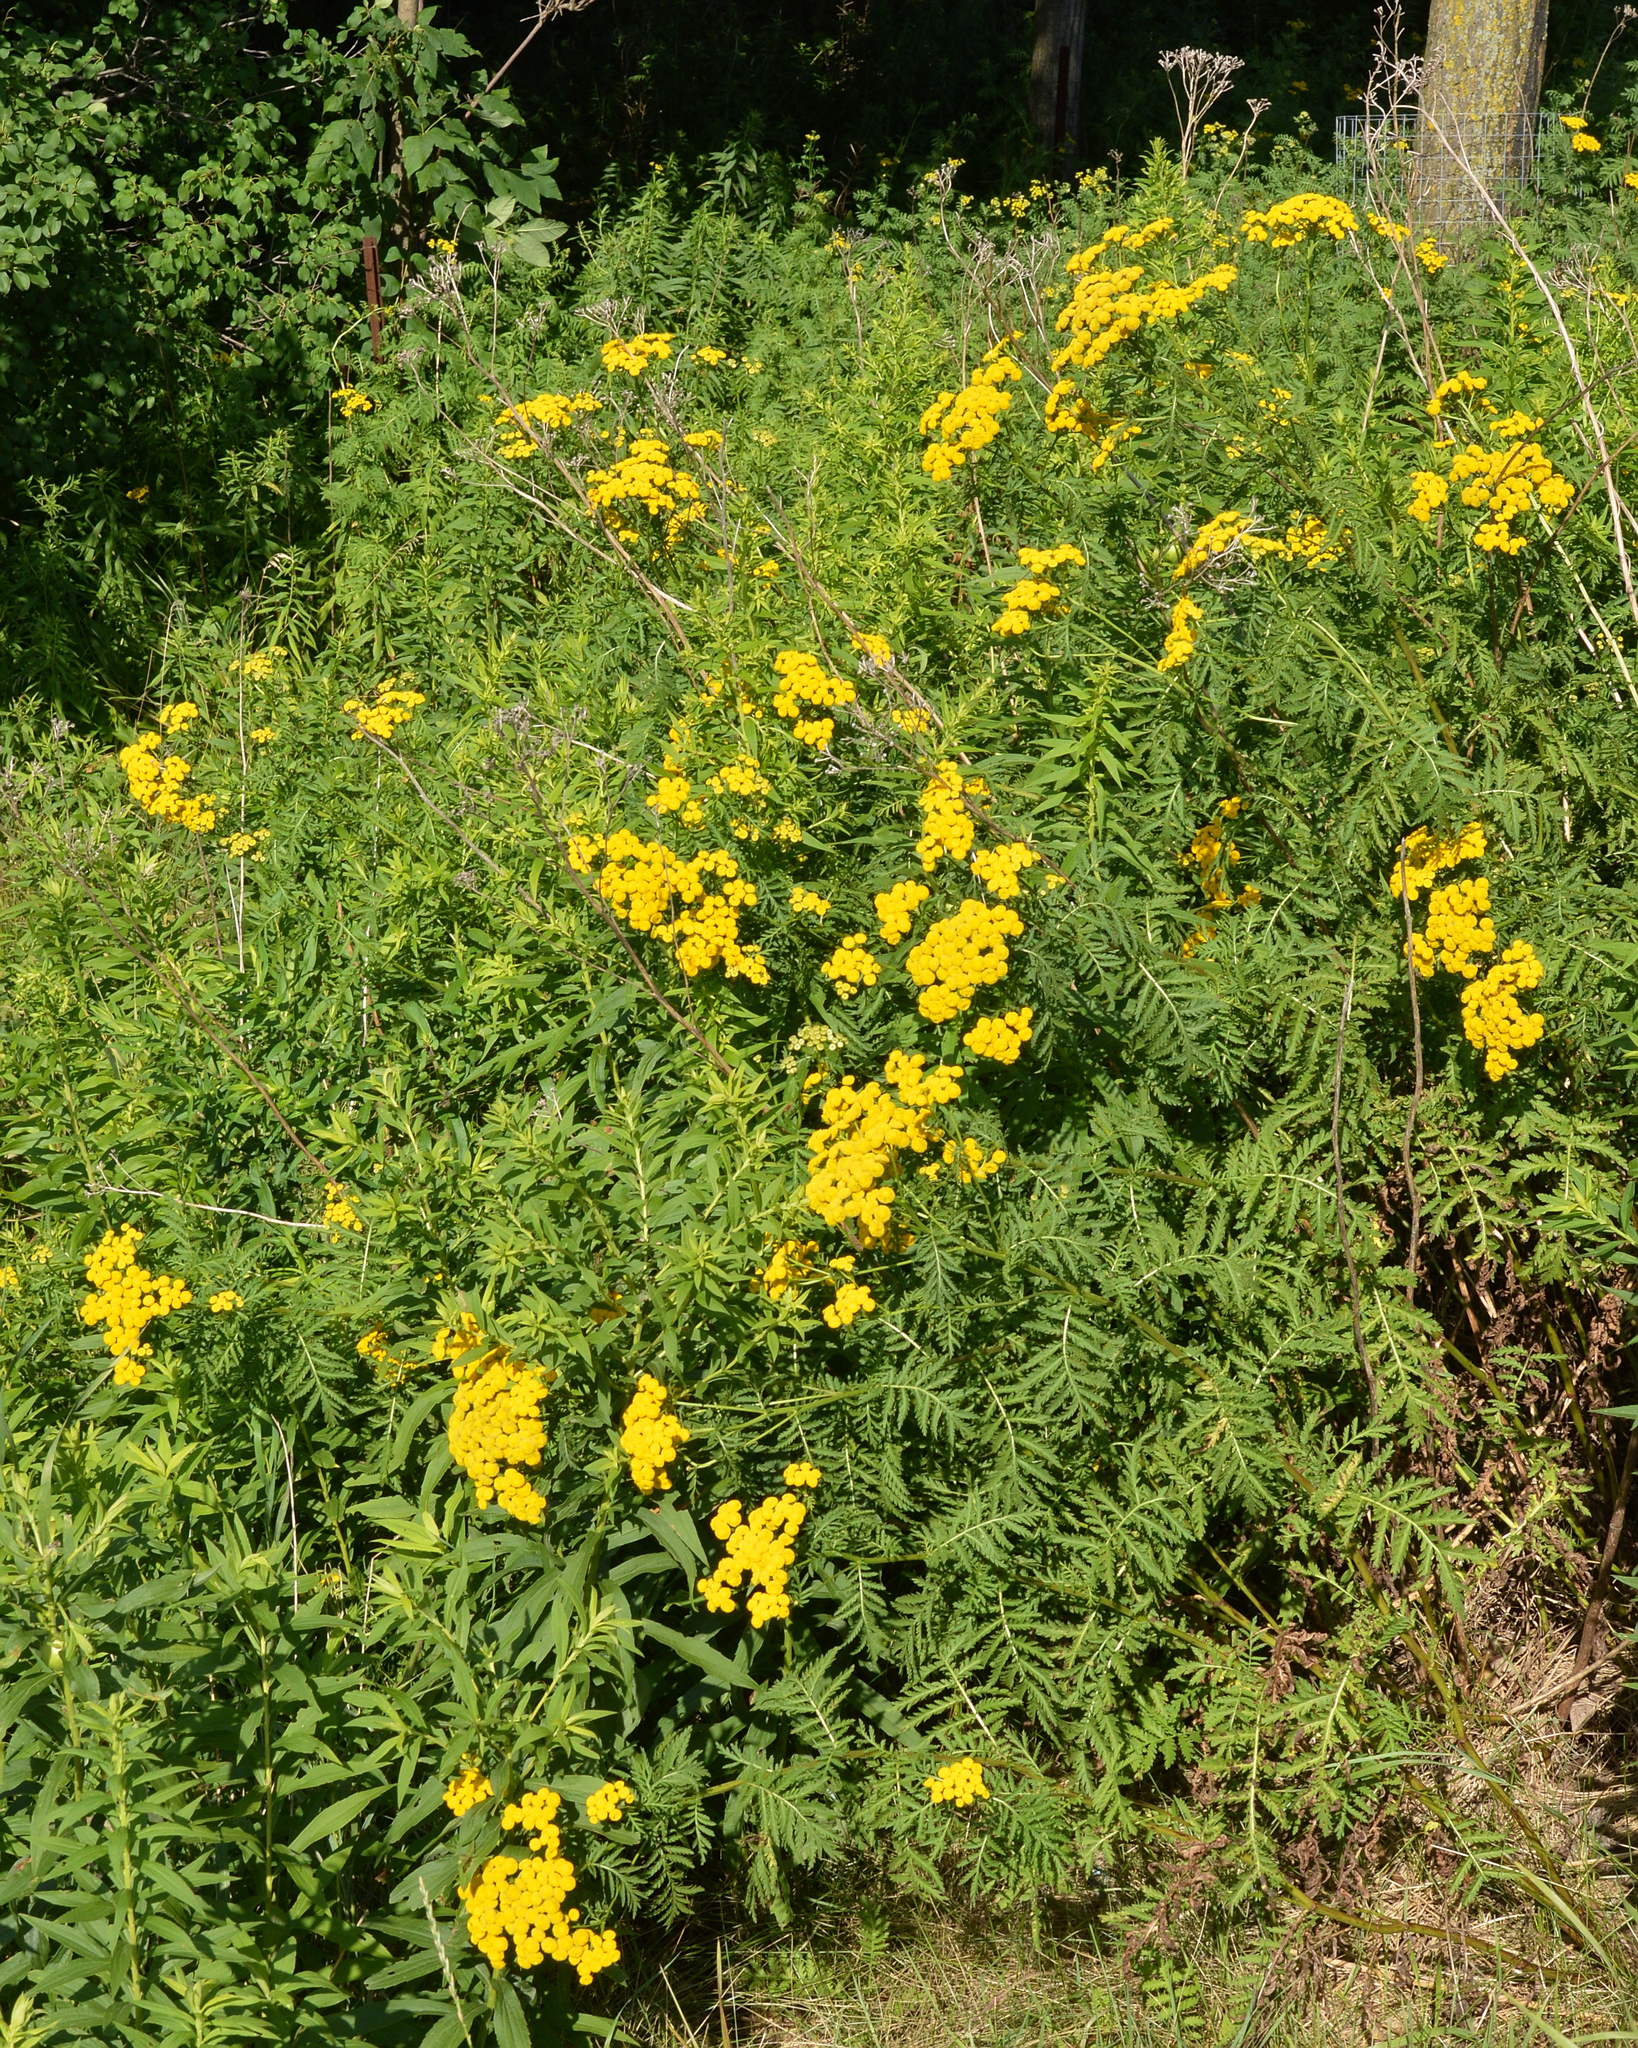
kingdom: Plantae
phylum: Tracheophyta
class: Magnoliopsida
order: Asterales
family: Asteraceae
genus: Tanacetum
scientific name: Tanacetum vulgare
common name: Common tansy
